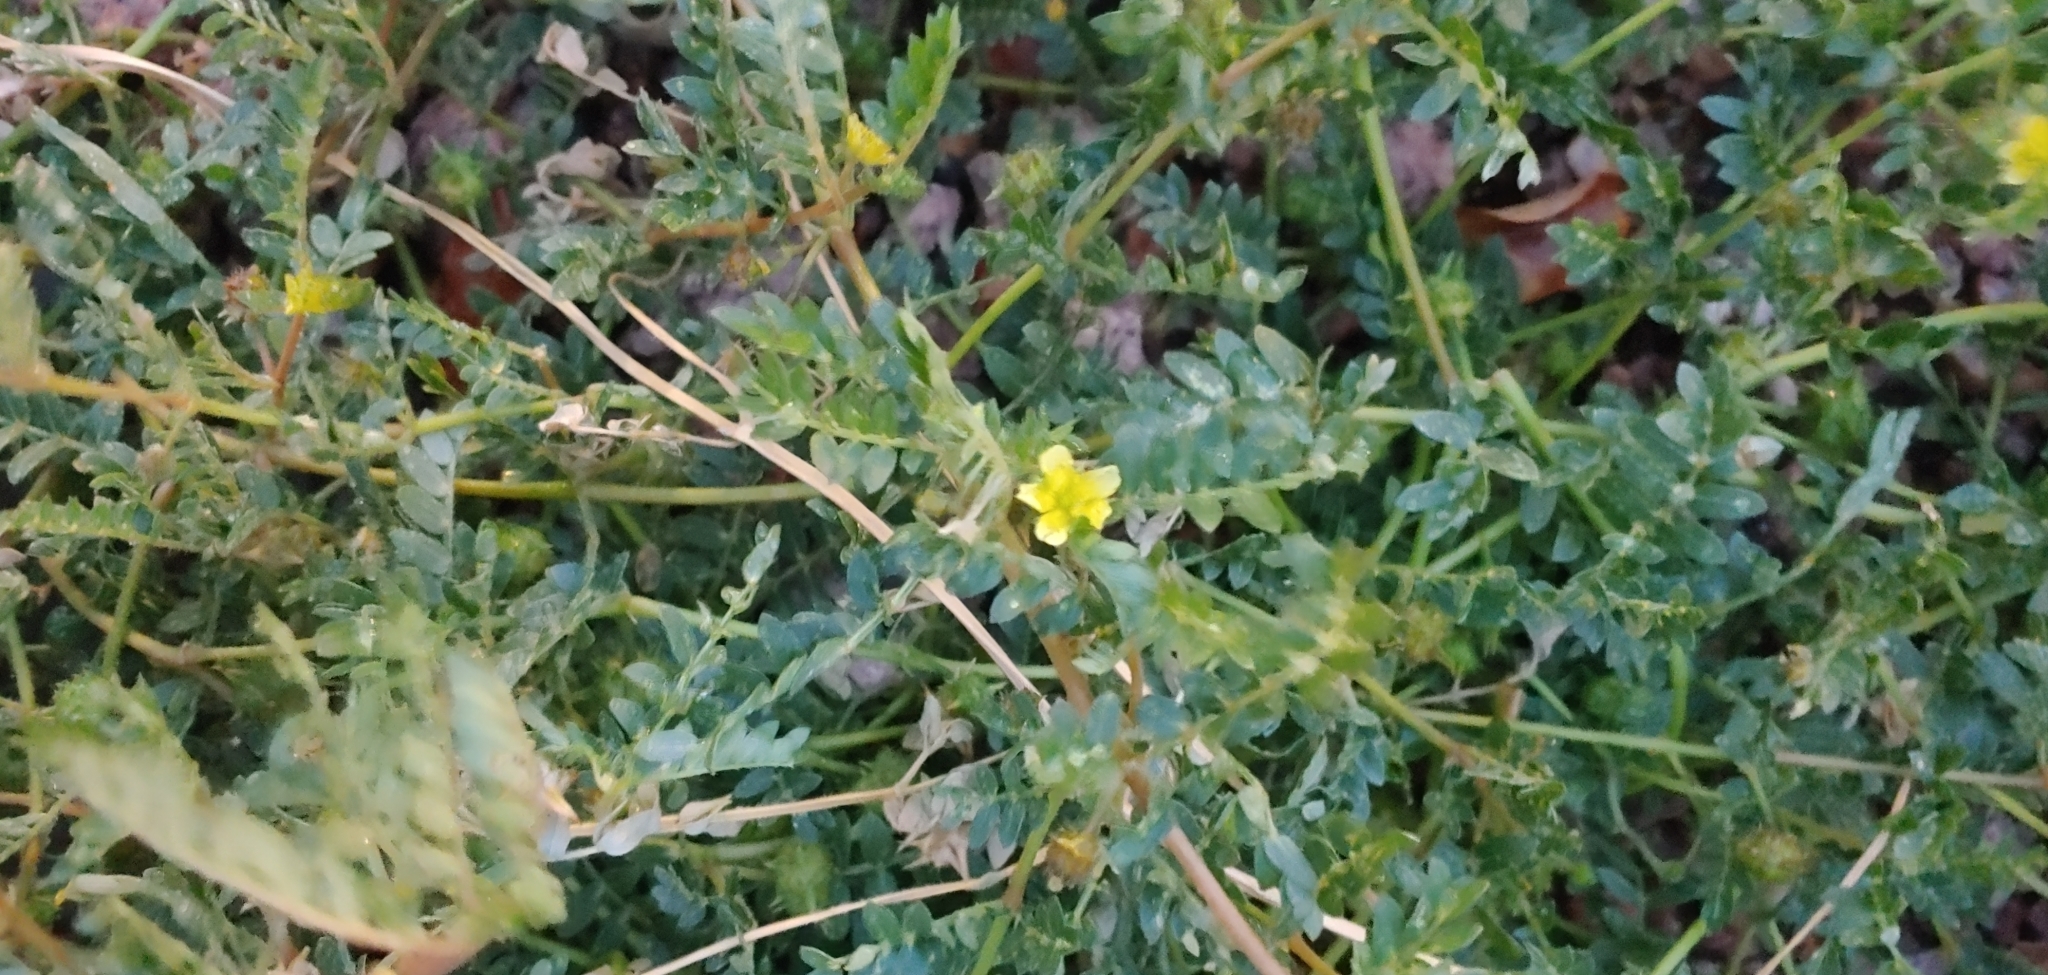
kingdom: Plantae
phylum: Tracheophyta
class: Magnoliopsida
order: Zygophyllales
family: Zygophyllaceae
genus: Tribulus
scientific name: Tribulus terrestris
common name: Puncturevine
